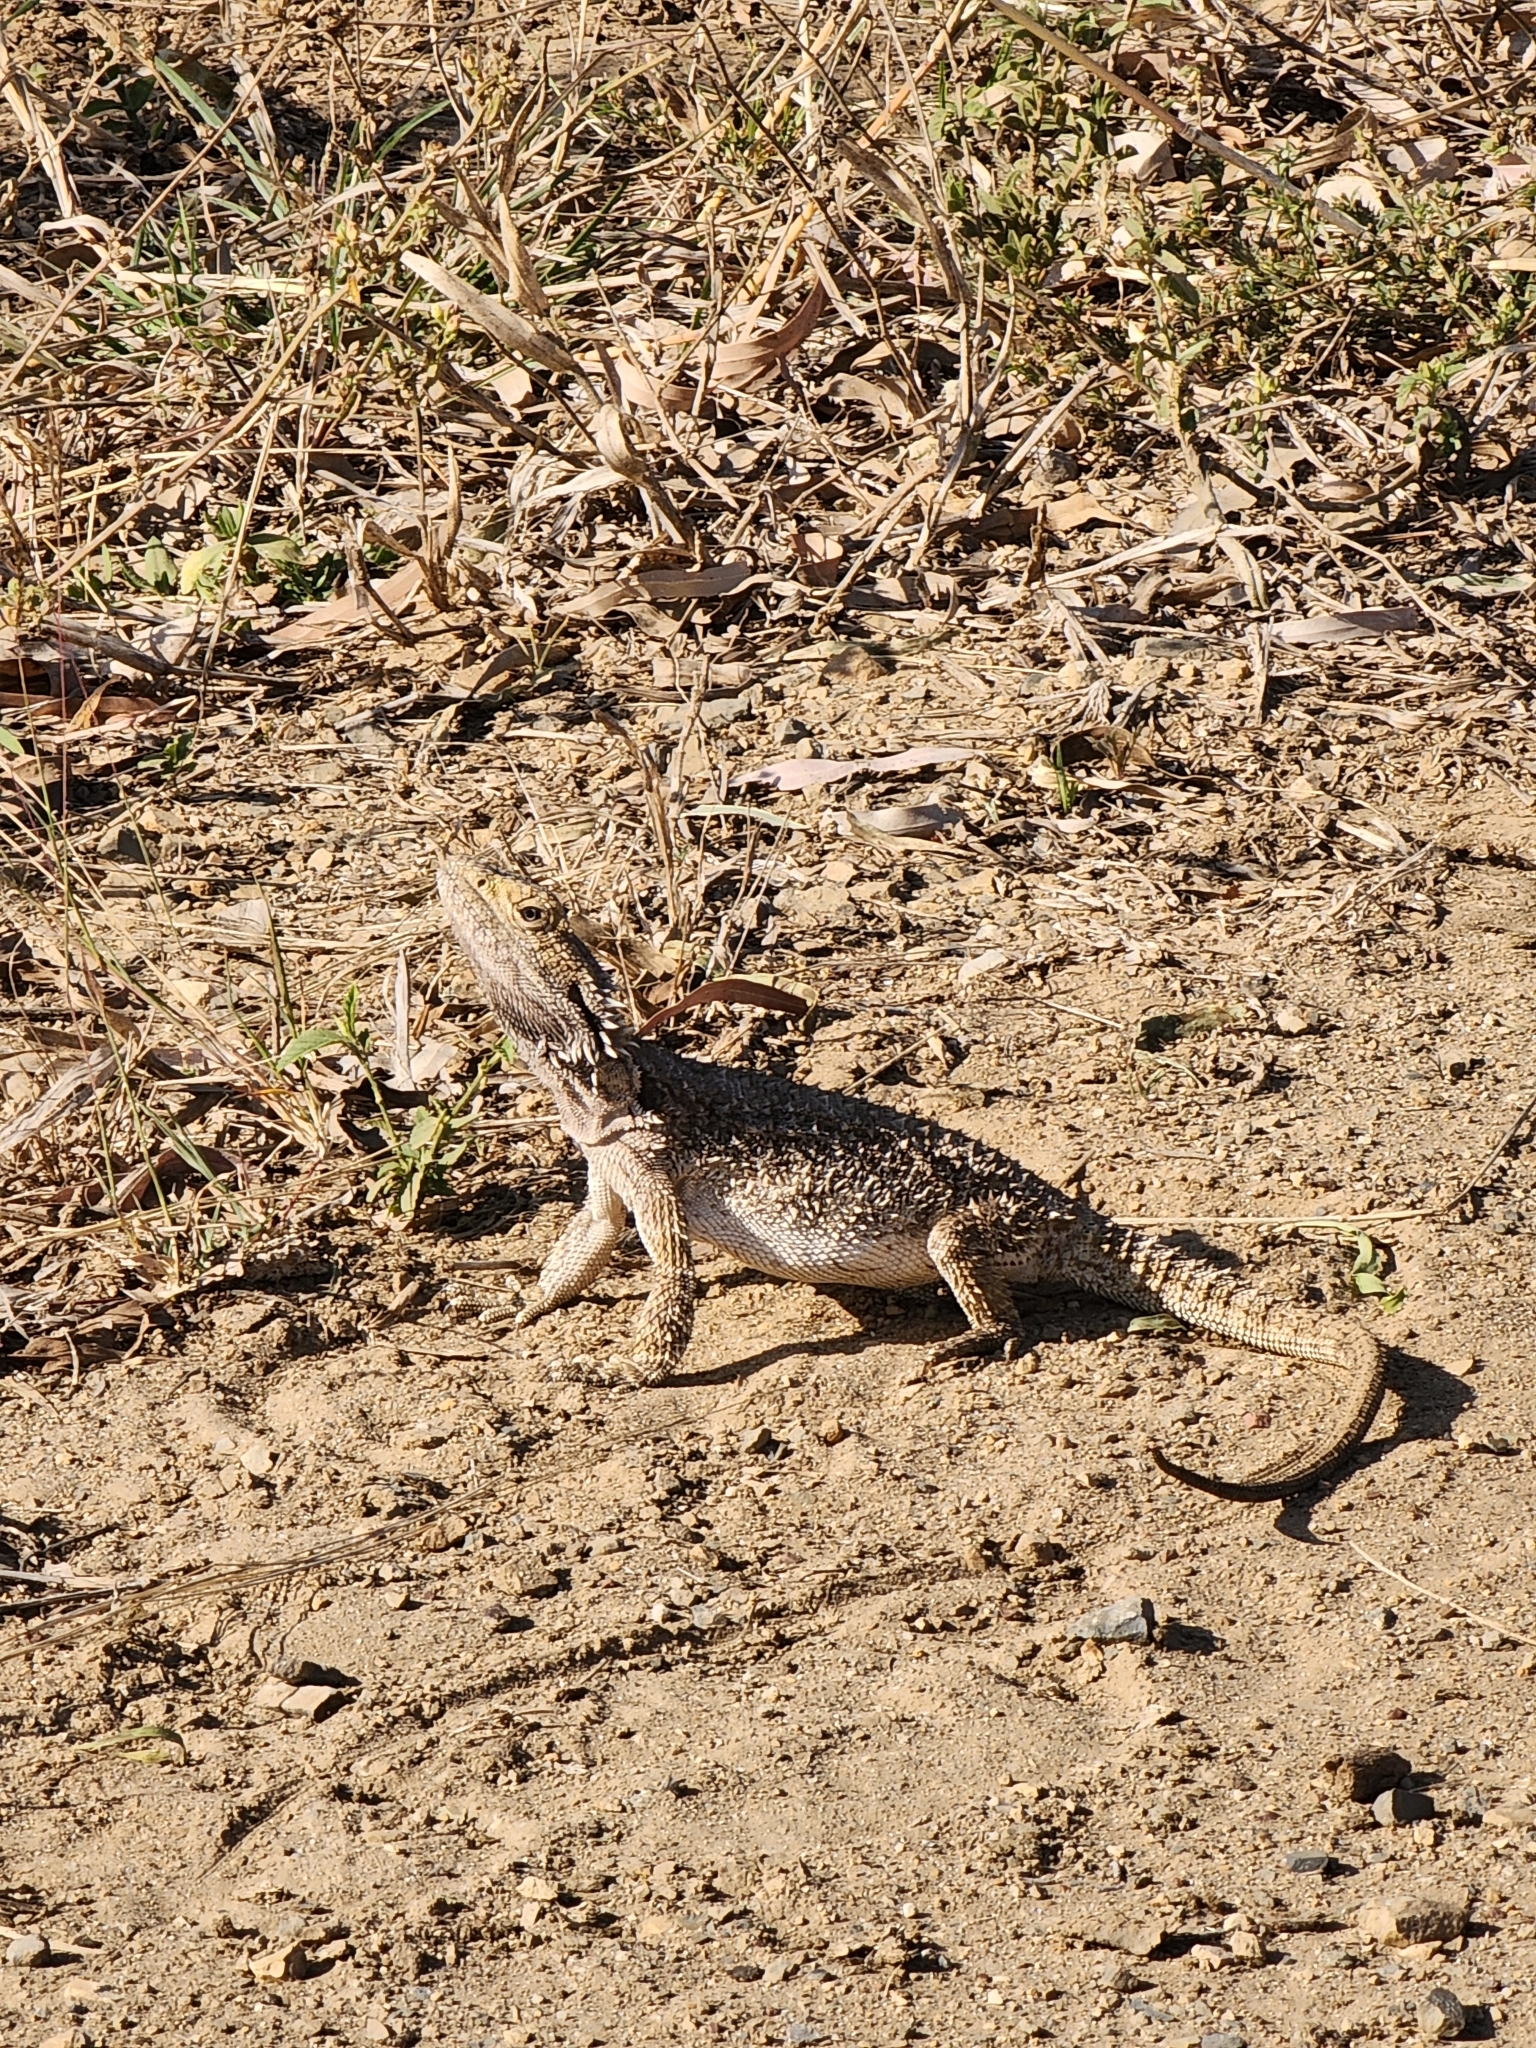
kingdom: Animalia
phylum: Chordata
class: Squamata
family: Agamidae
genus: Pogona
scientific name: Pogona barbata
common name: Bearded dragon
